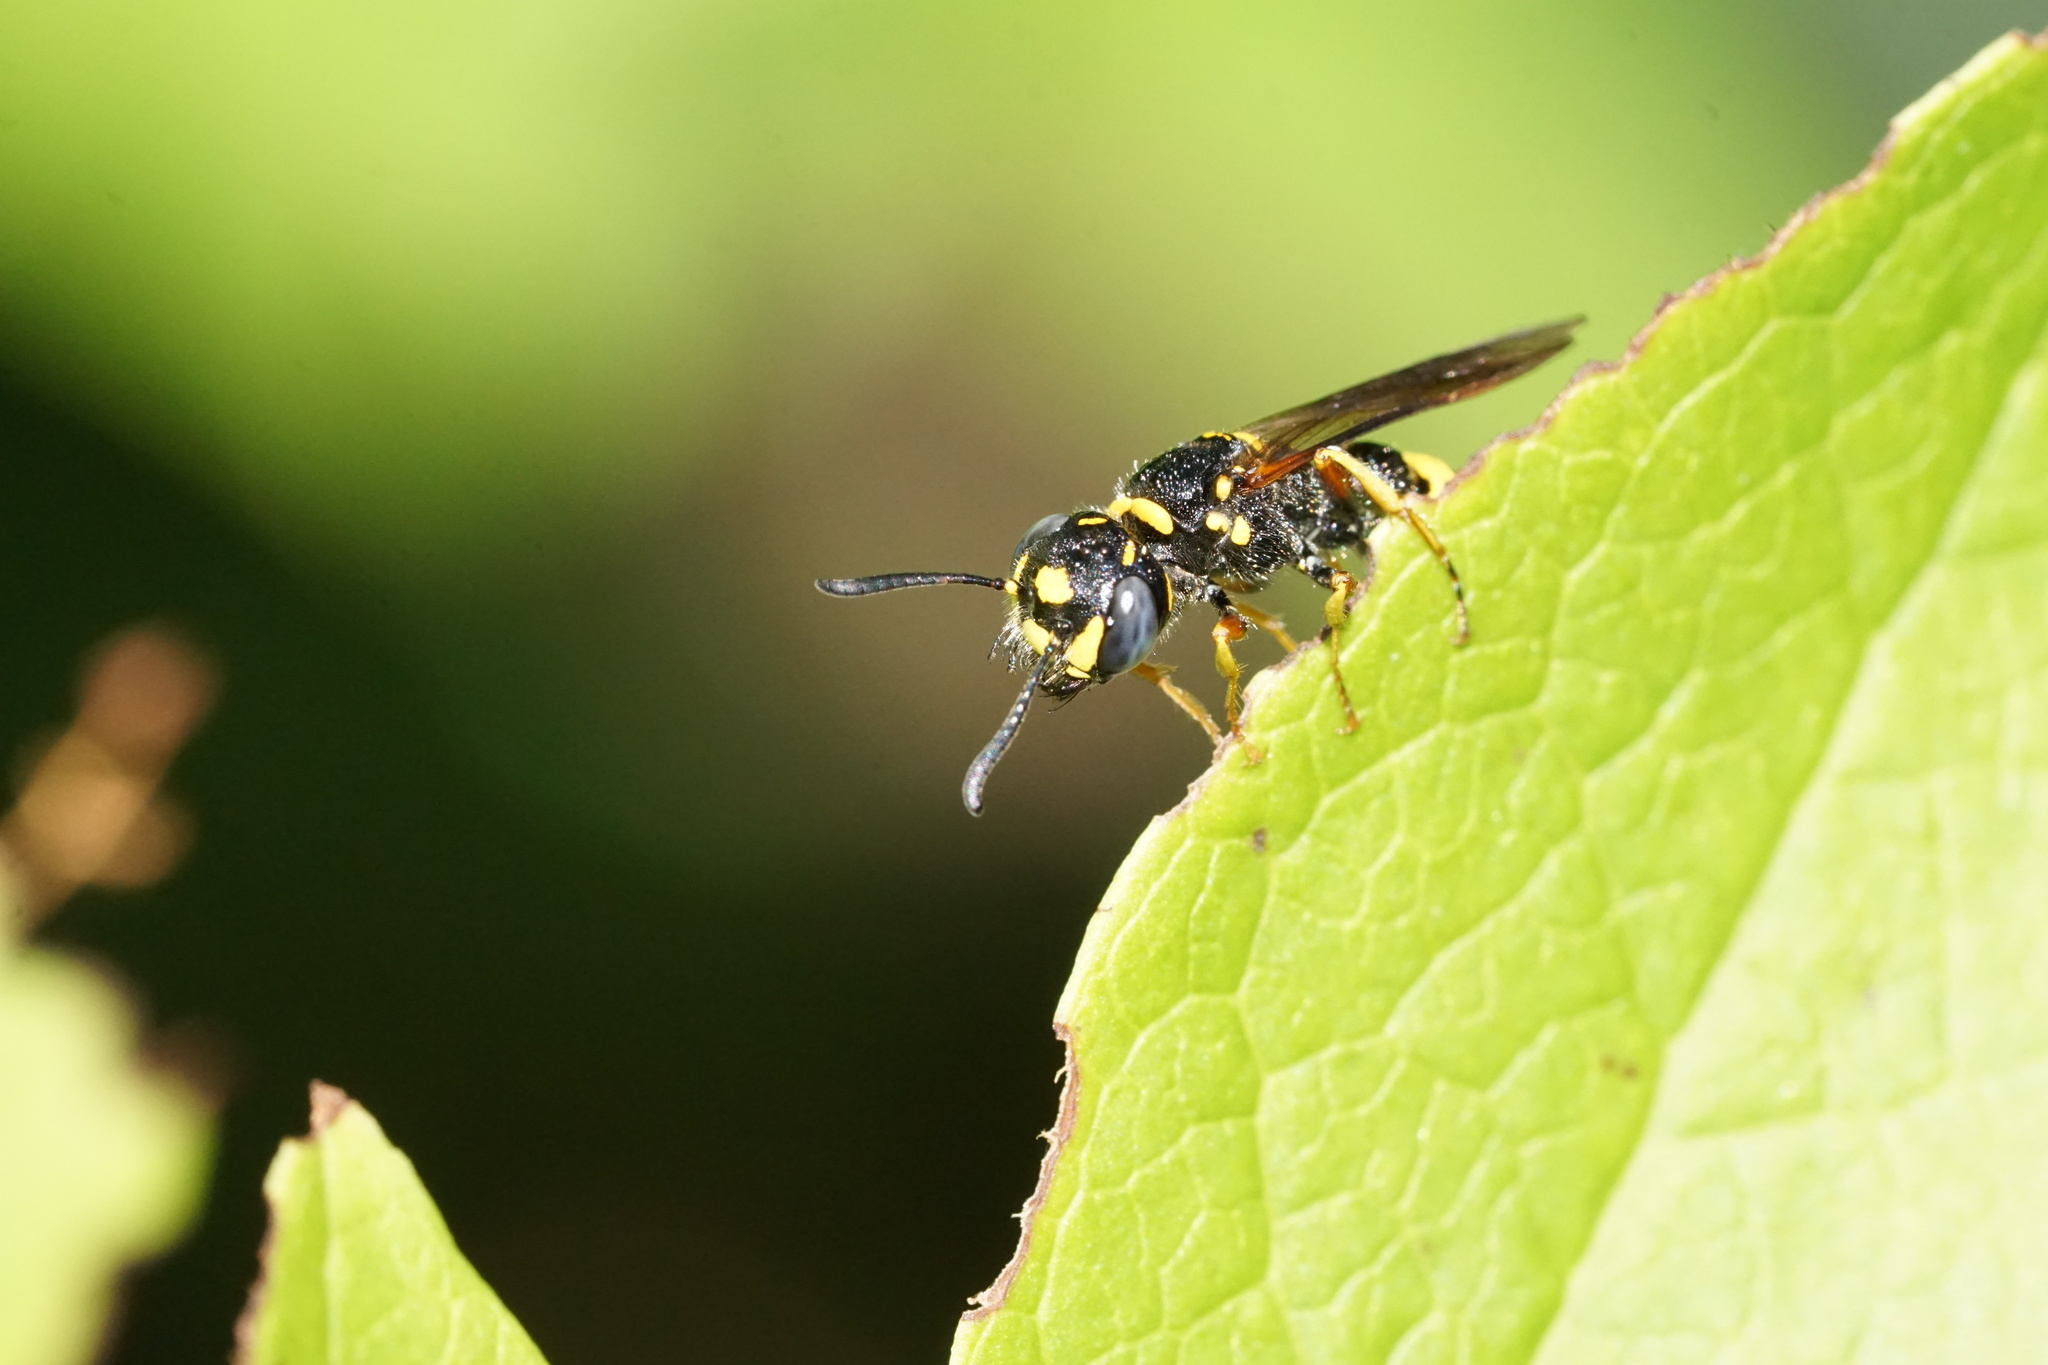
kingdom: Animalia
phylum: Arthropoda
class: Insecta
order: Hymenoptera
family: Crabronidae
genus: Philanthus
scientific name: Philanthus gibbosus
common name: Humped beewolf
